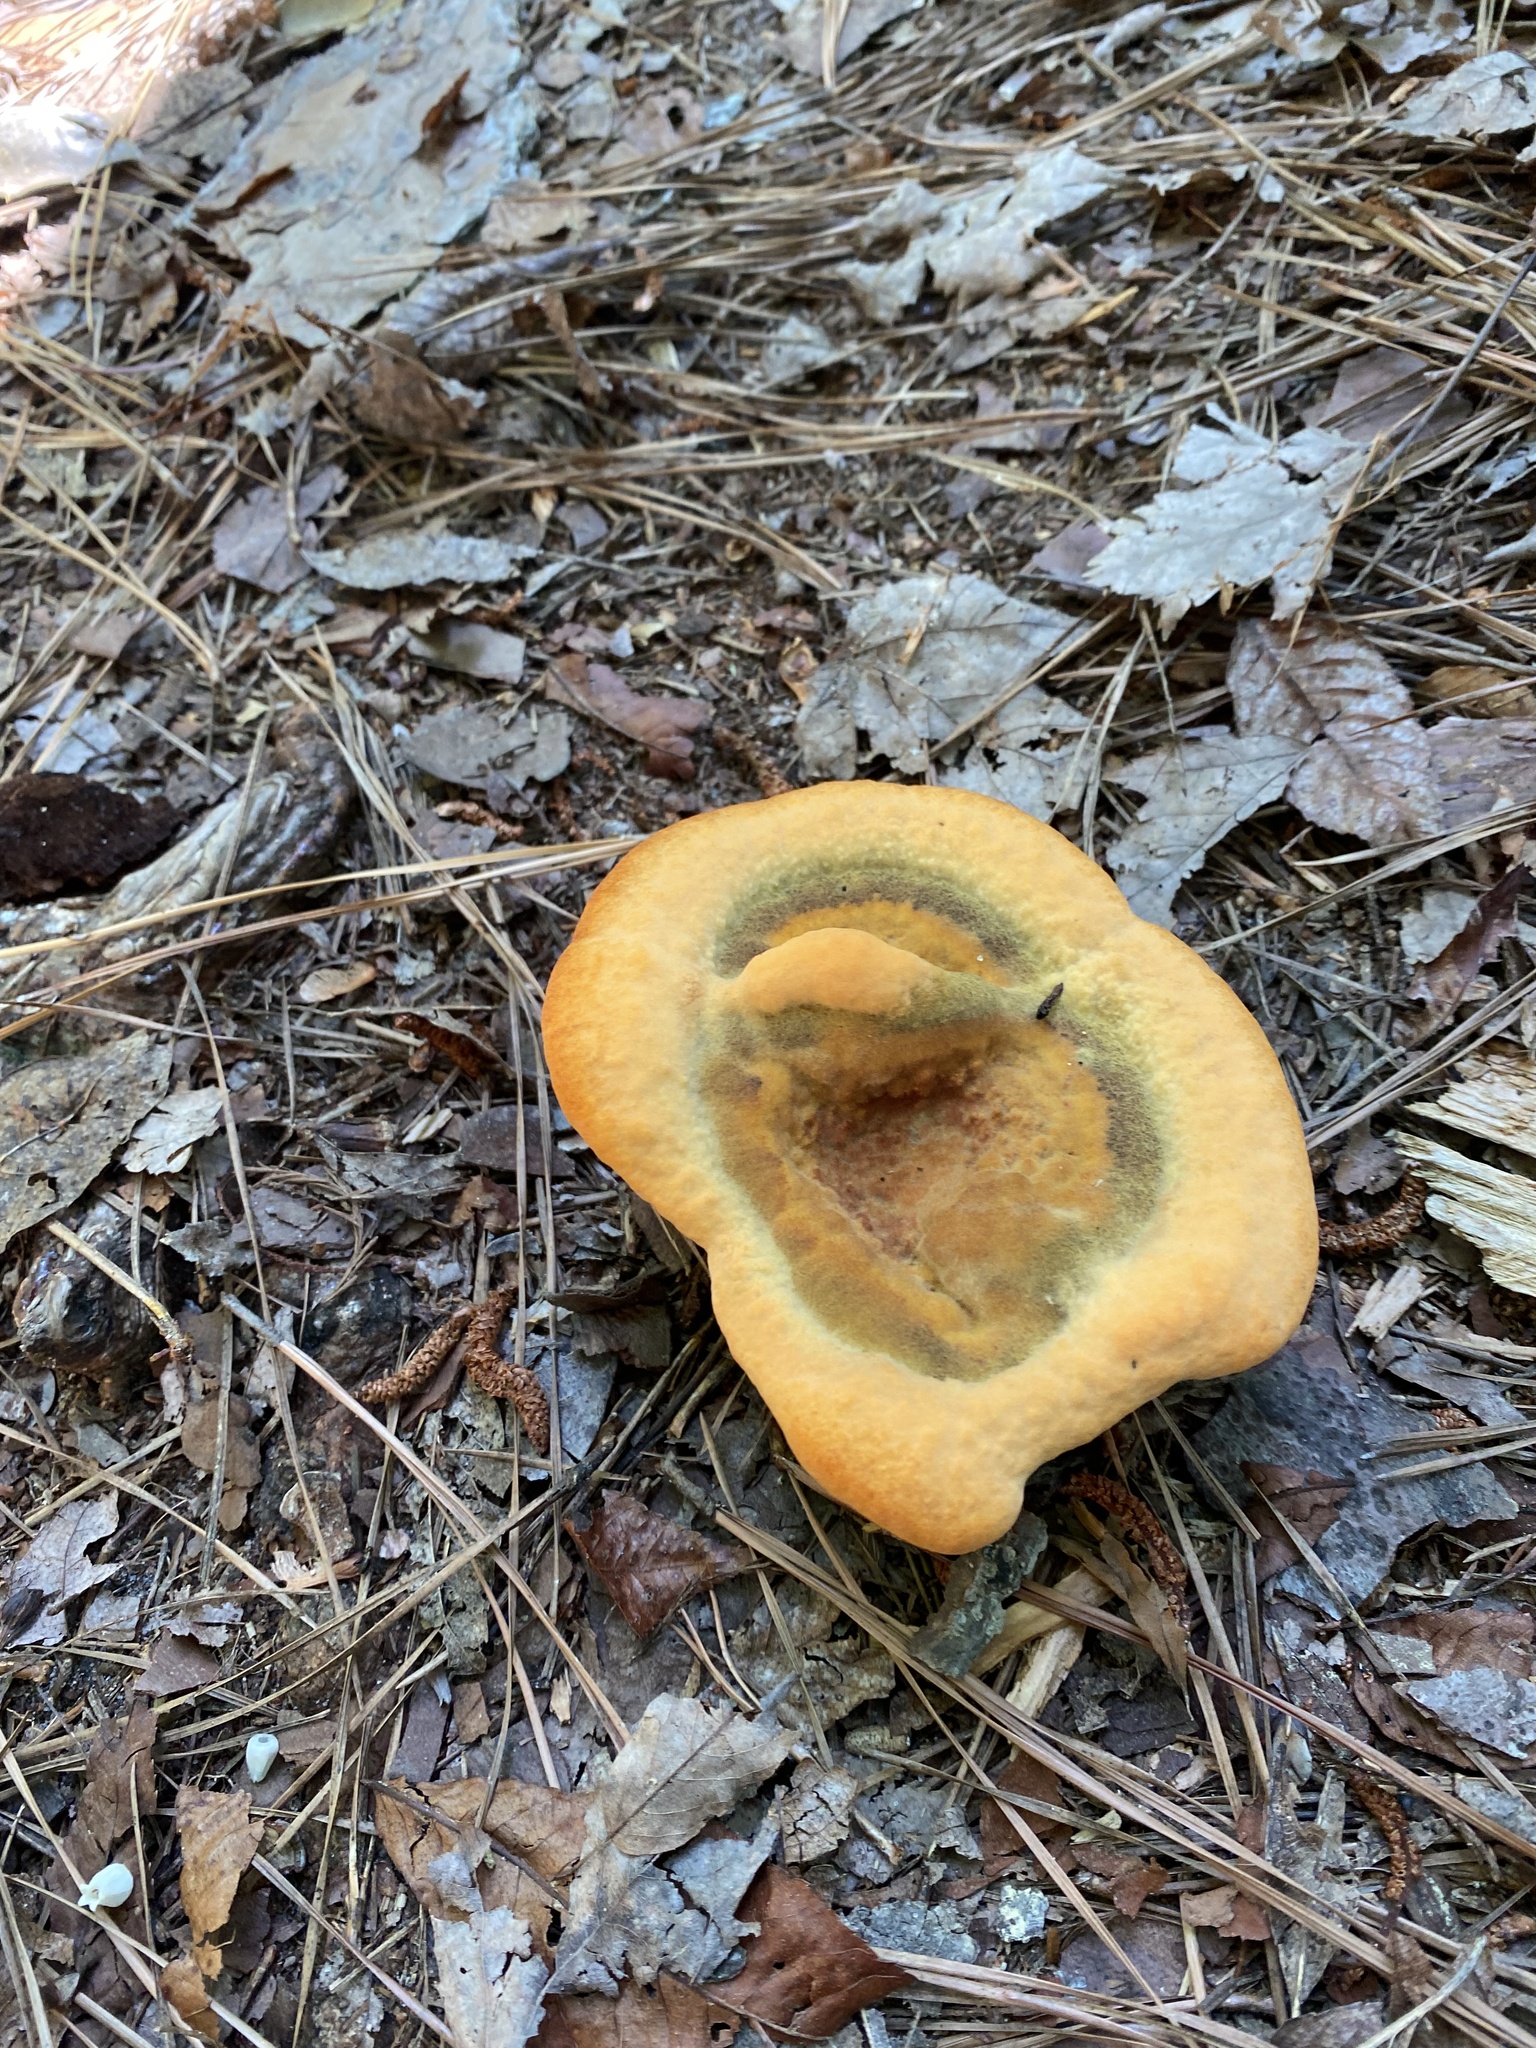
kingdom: Fungi
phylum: Basidiomycota
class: Agaricomycetes
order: Polyporales
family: Laetiporaceae
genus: Phaeolus
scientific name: Phaeolus schweinitzii
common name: Dyer's mazegill
